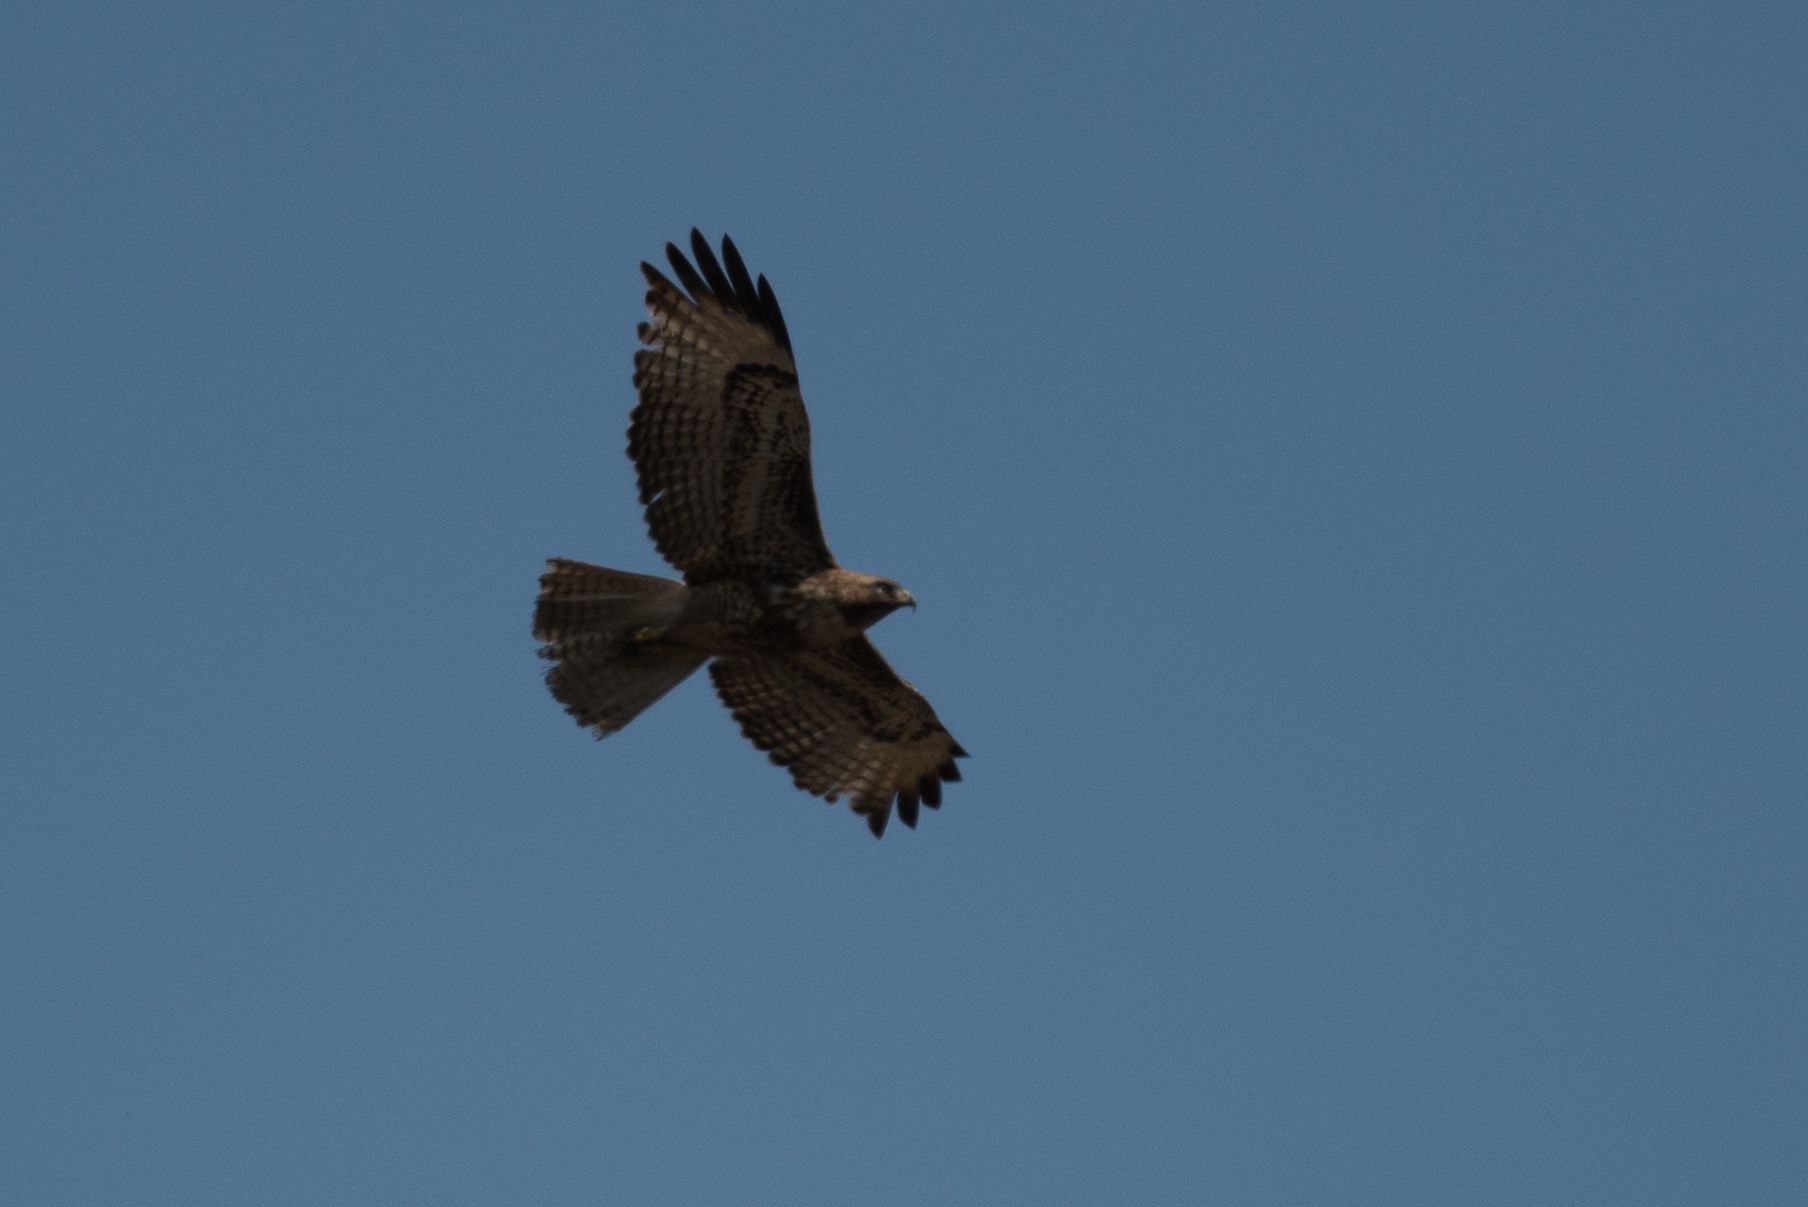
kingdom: Animalia
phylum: Chordata
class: Aves
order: Accipitriformes
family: Accipitridae
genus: Buteo
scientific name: Buteo jamaicensis
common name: Red-tailed hawk
